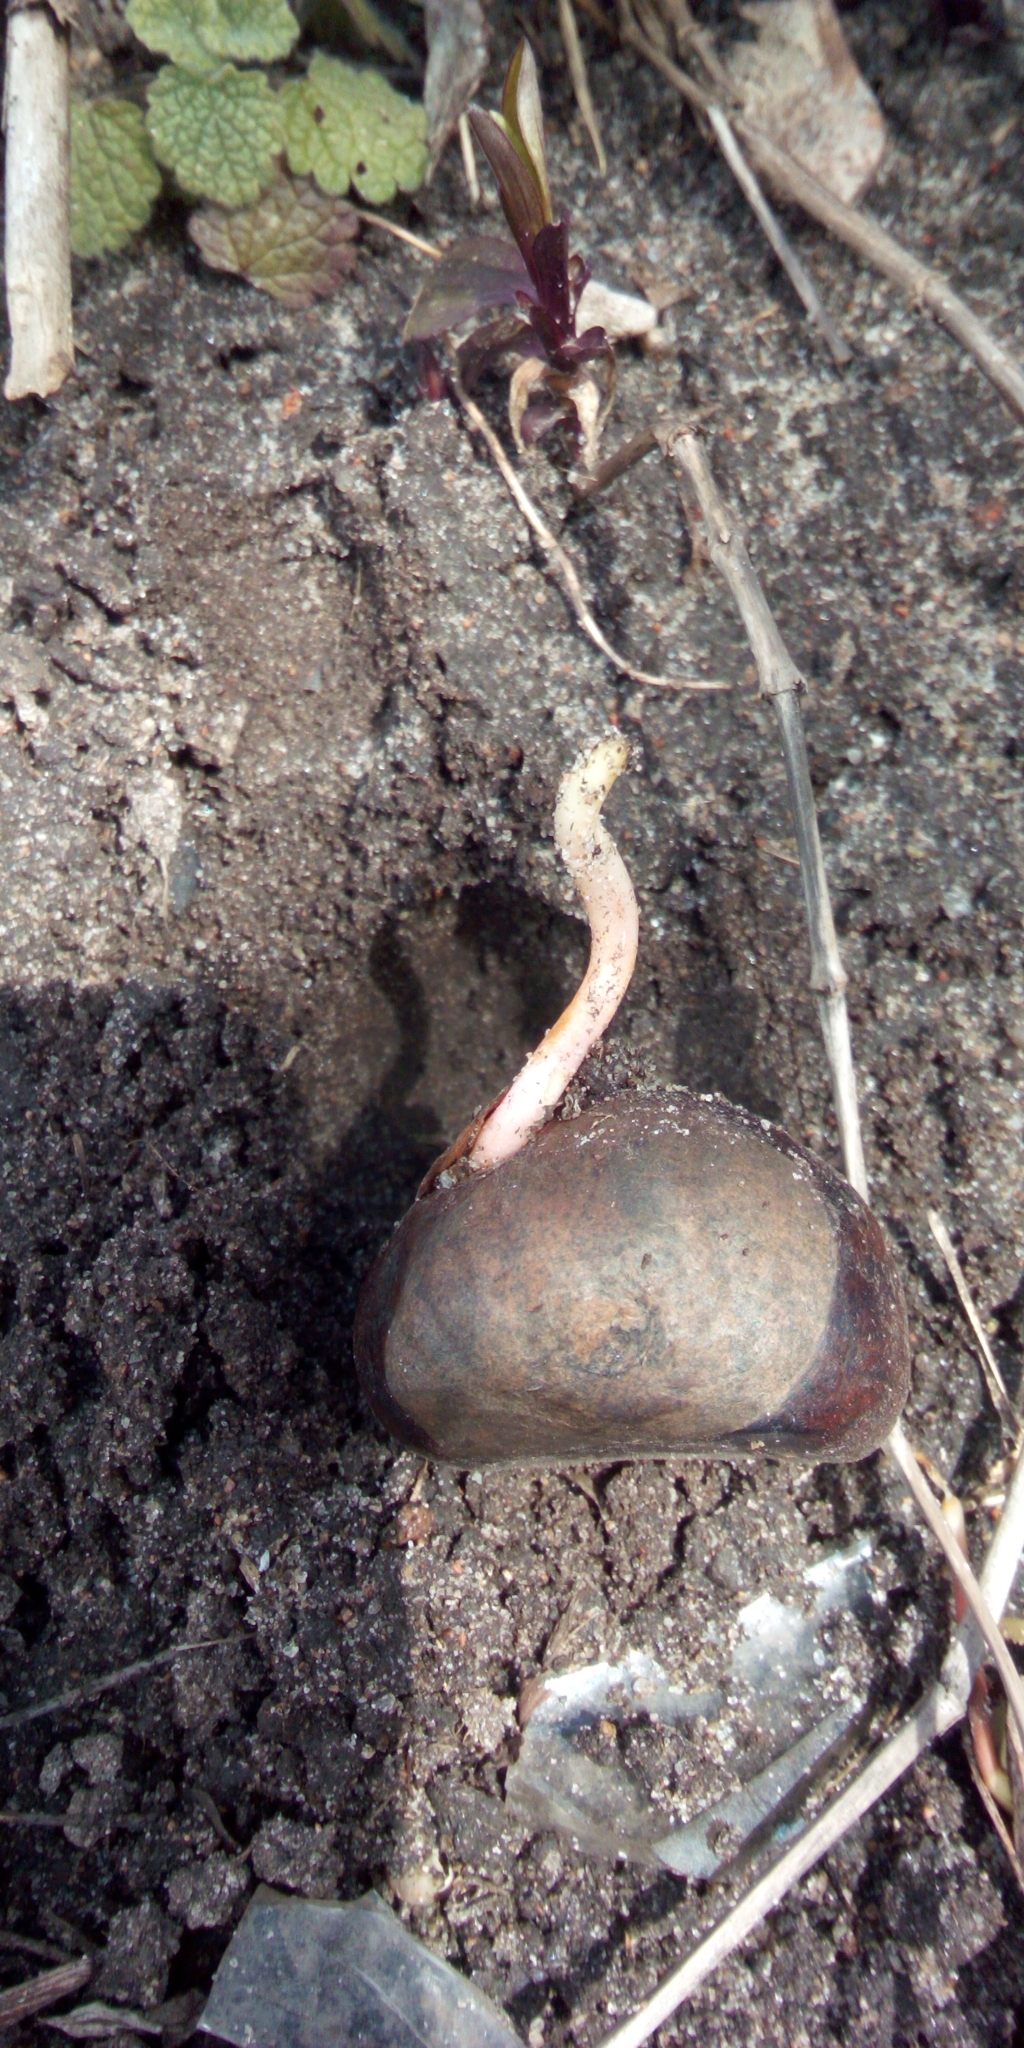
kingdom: Plantae
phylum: Tracheophyta
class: Magnoliopsida
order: Sapindales
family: Sapindaceae
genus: Aesculus
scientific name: Aesculus hippocastanum
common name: Horse-chestnut
